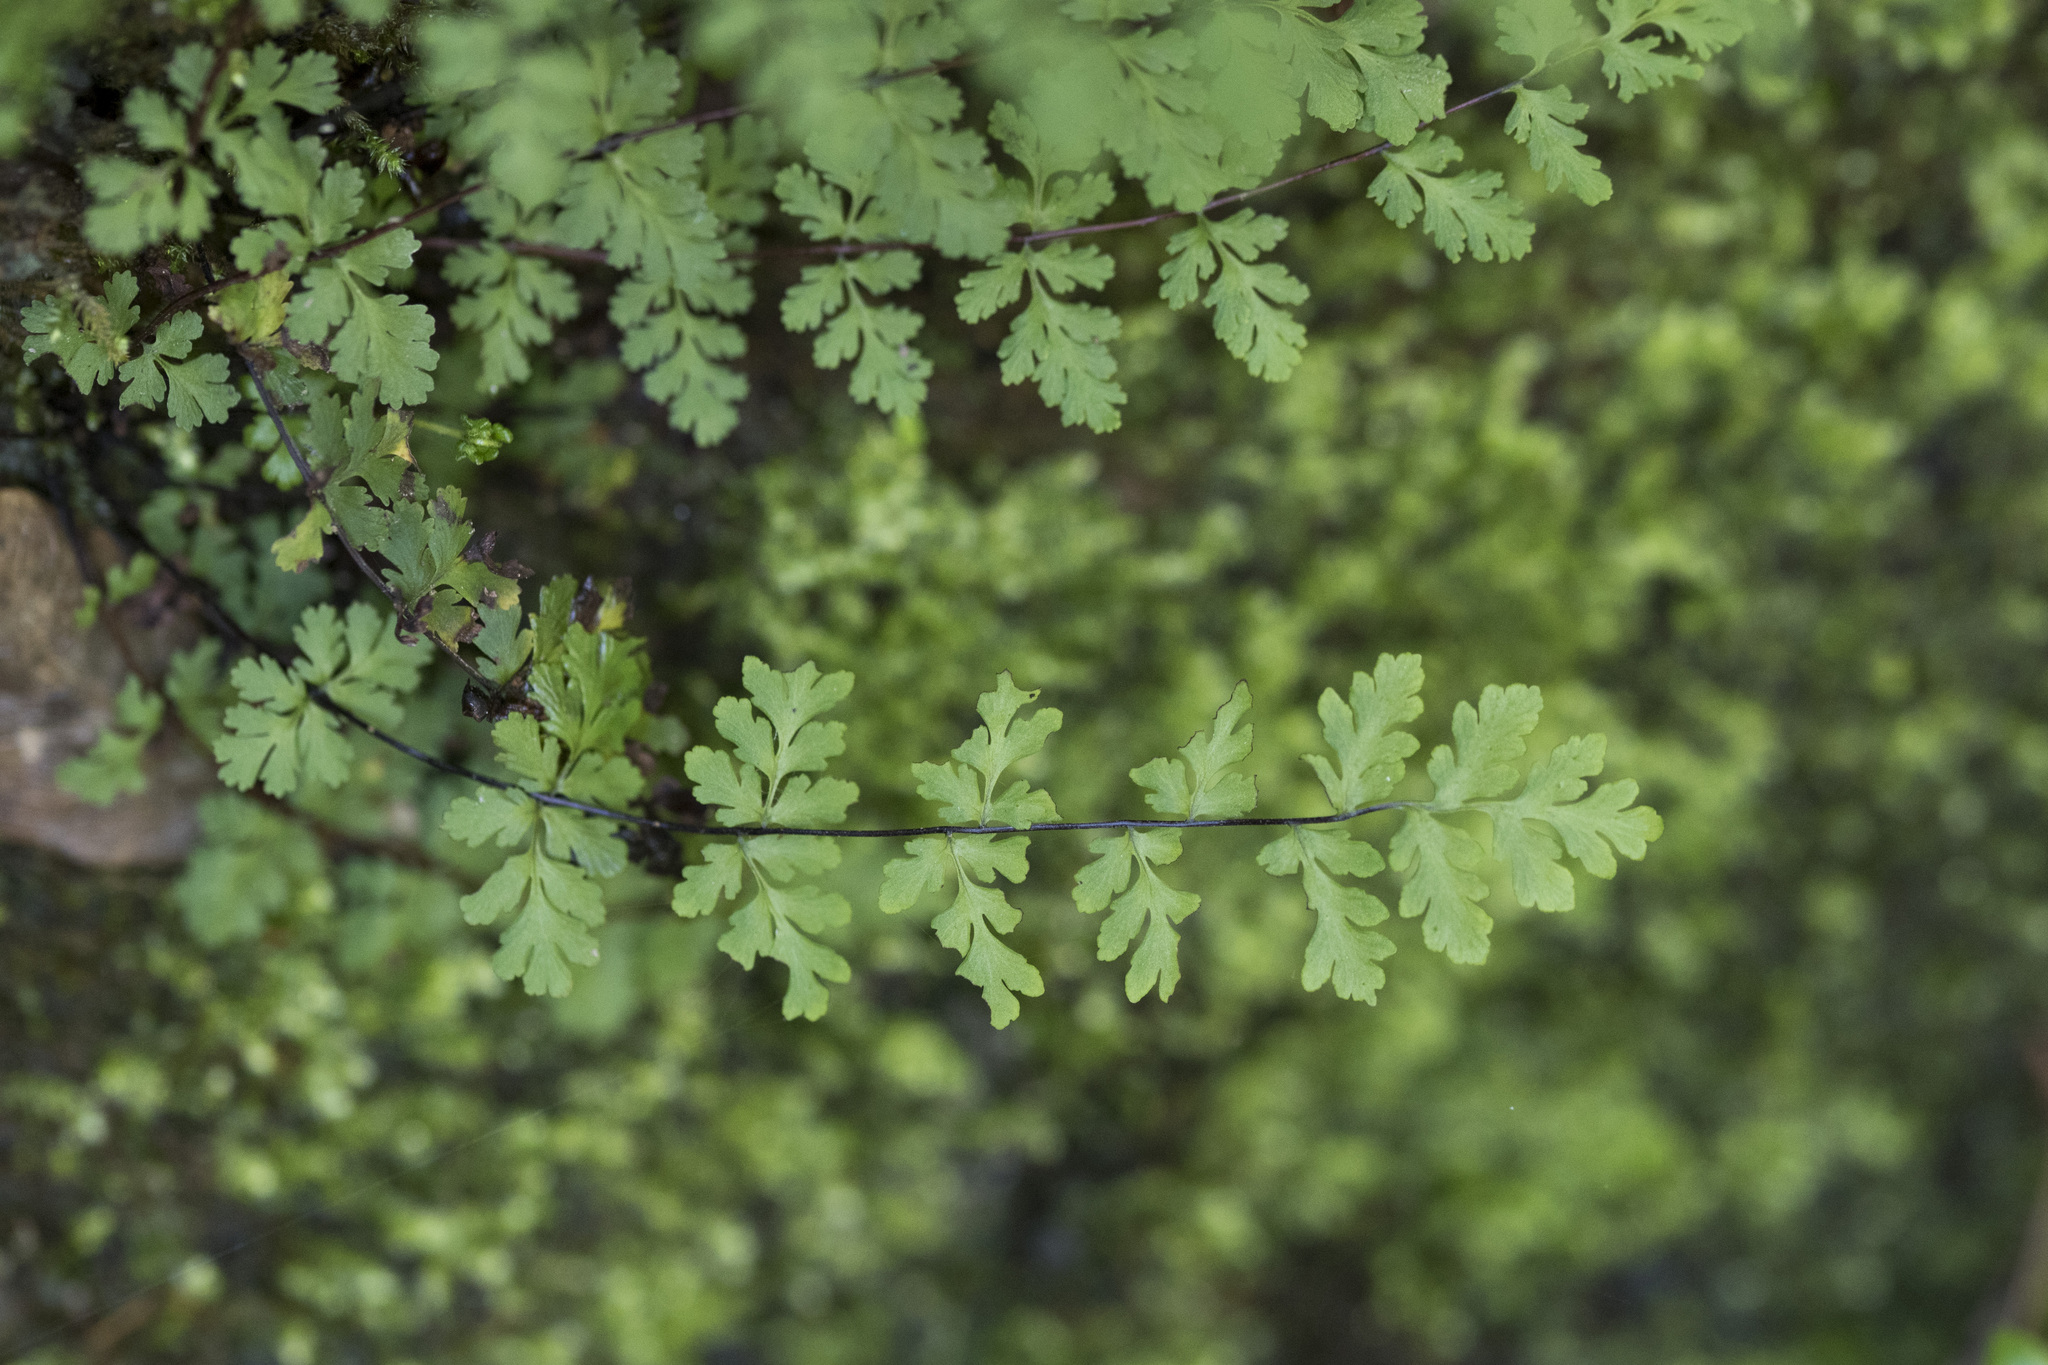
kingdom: Plantae
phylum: Tracheophyta
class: Polypodiopsida
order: Polypodiales
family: Pteridaceae
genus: Oeosporangium
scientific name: Oeosporangium chusanum
